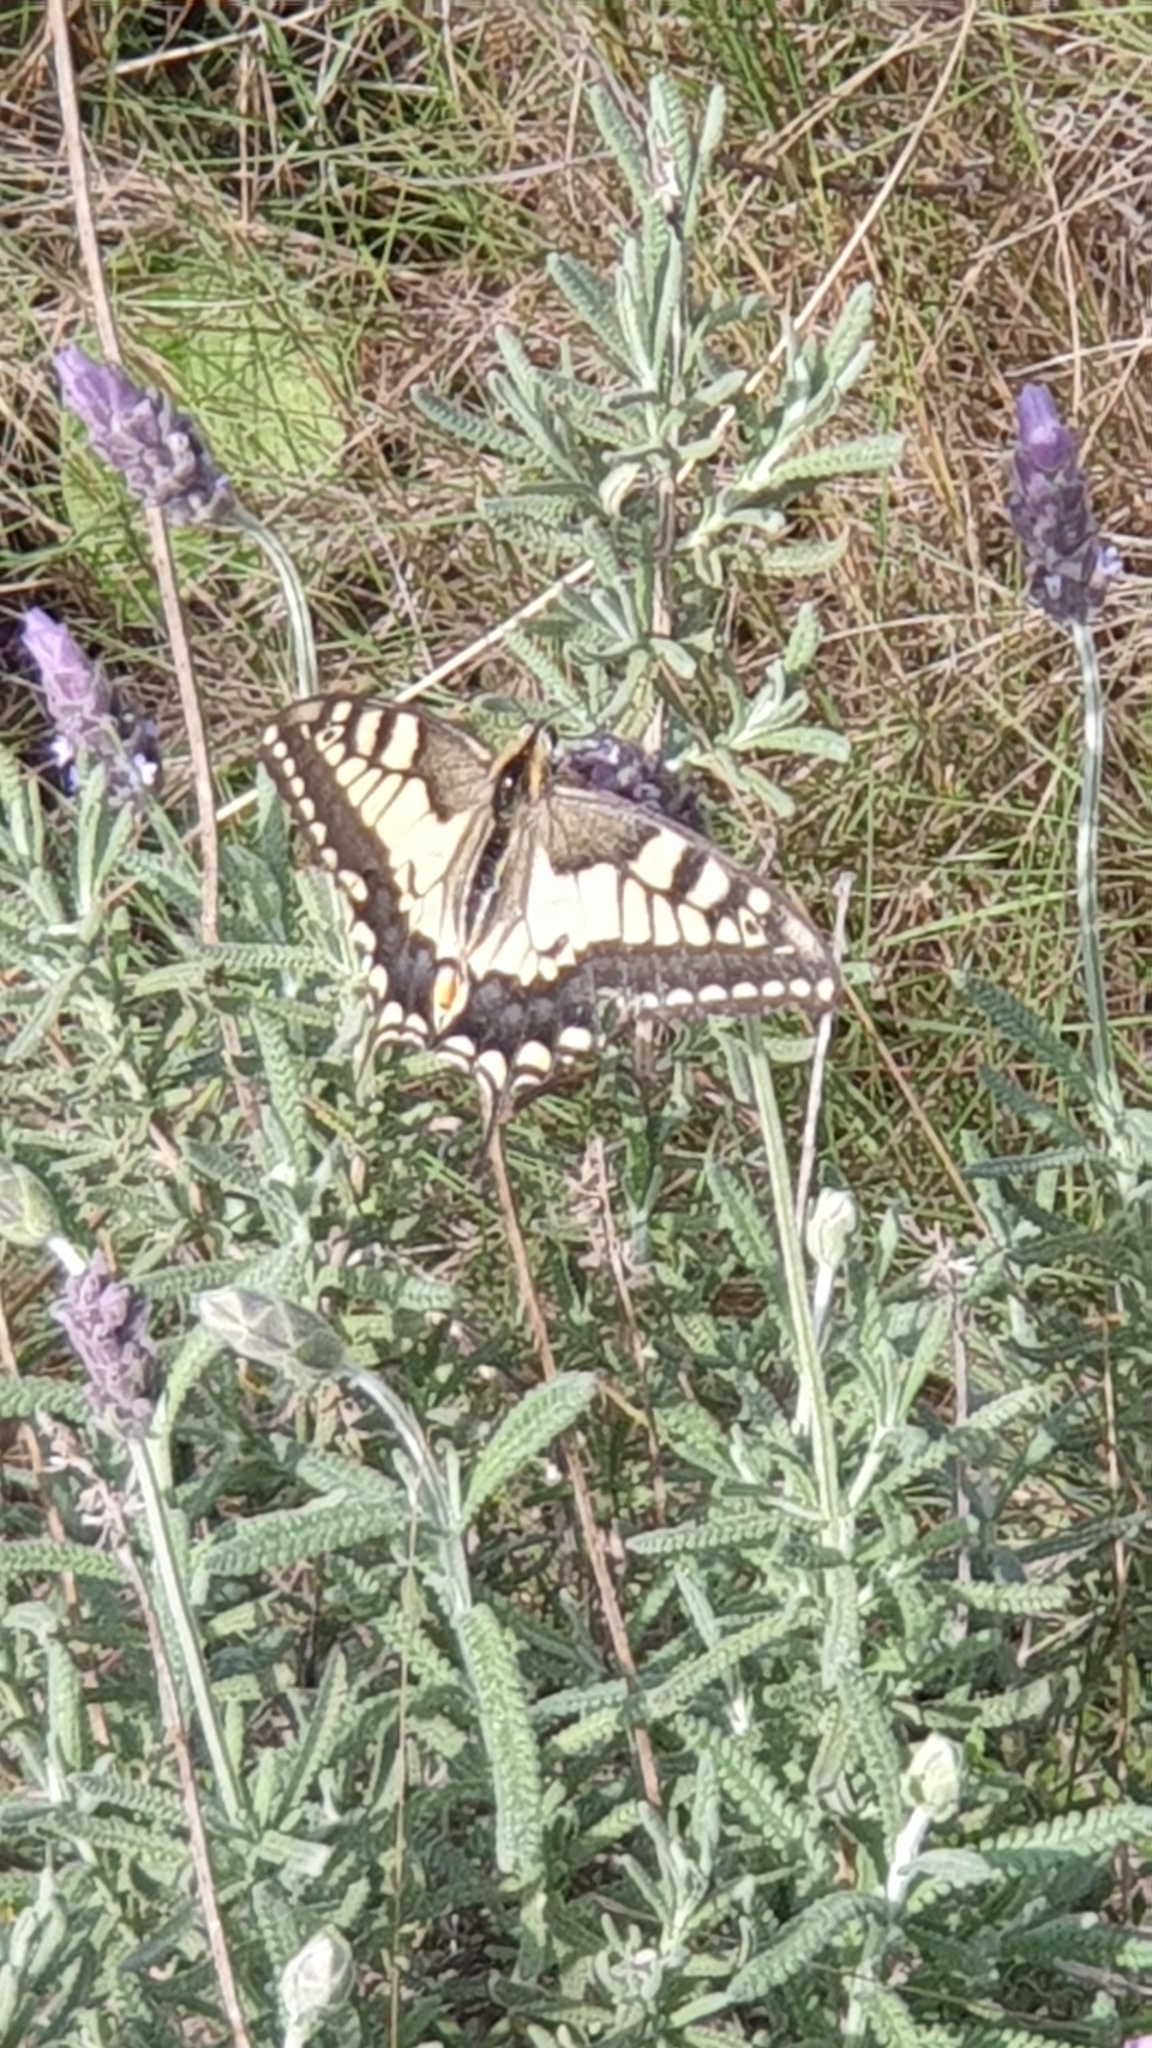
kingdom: Animalia
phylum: Arthropoda
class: Insecta
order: Lepidoptera
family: Papilionidae
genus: Papilio
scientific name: Papilio machaon
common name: Swallowtail
